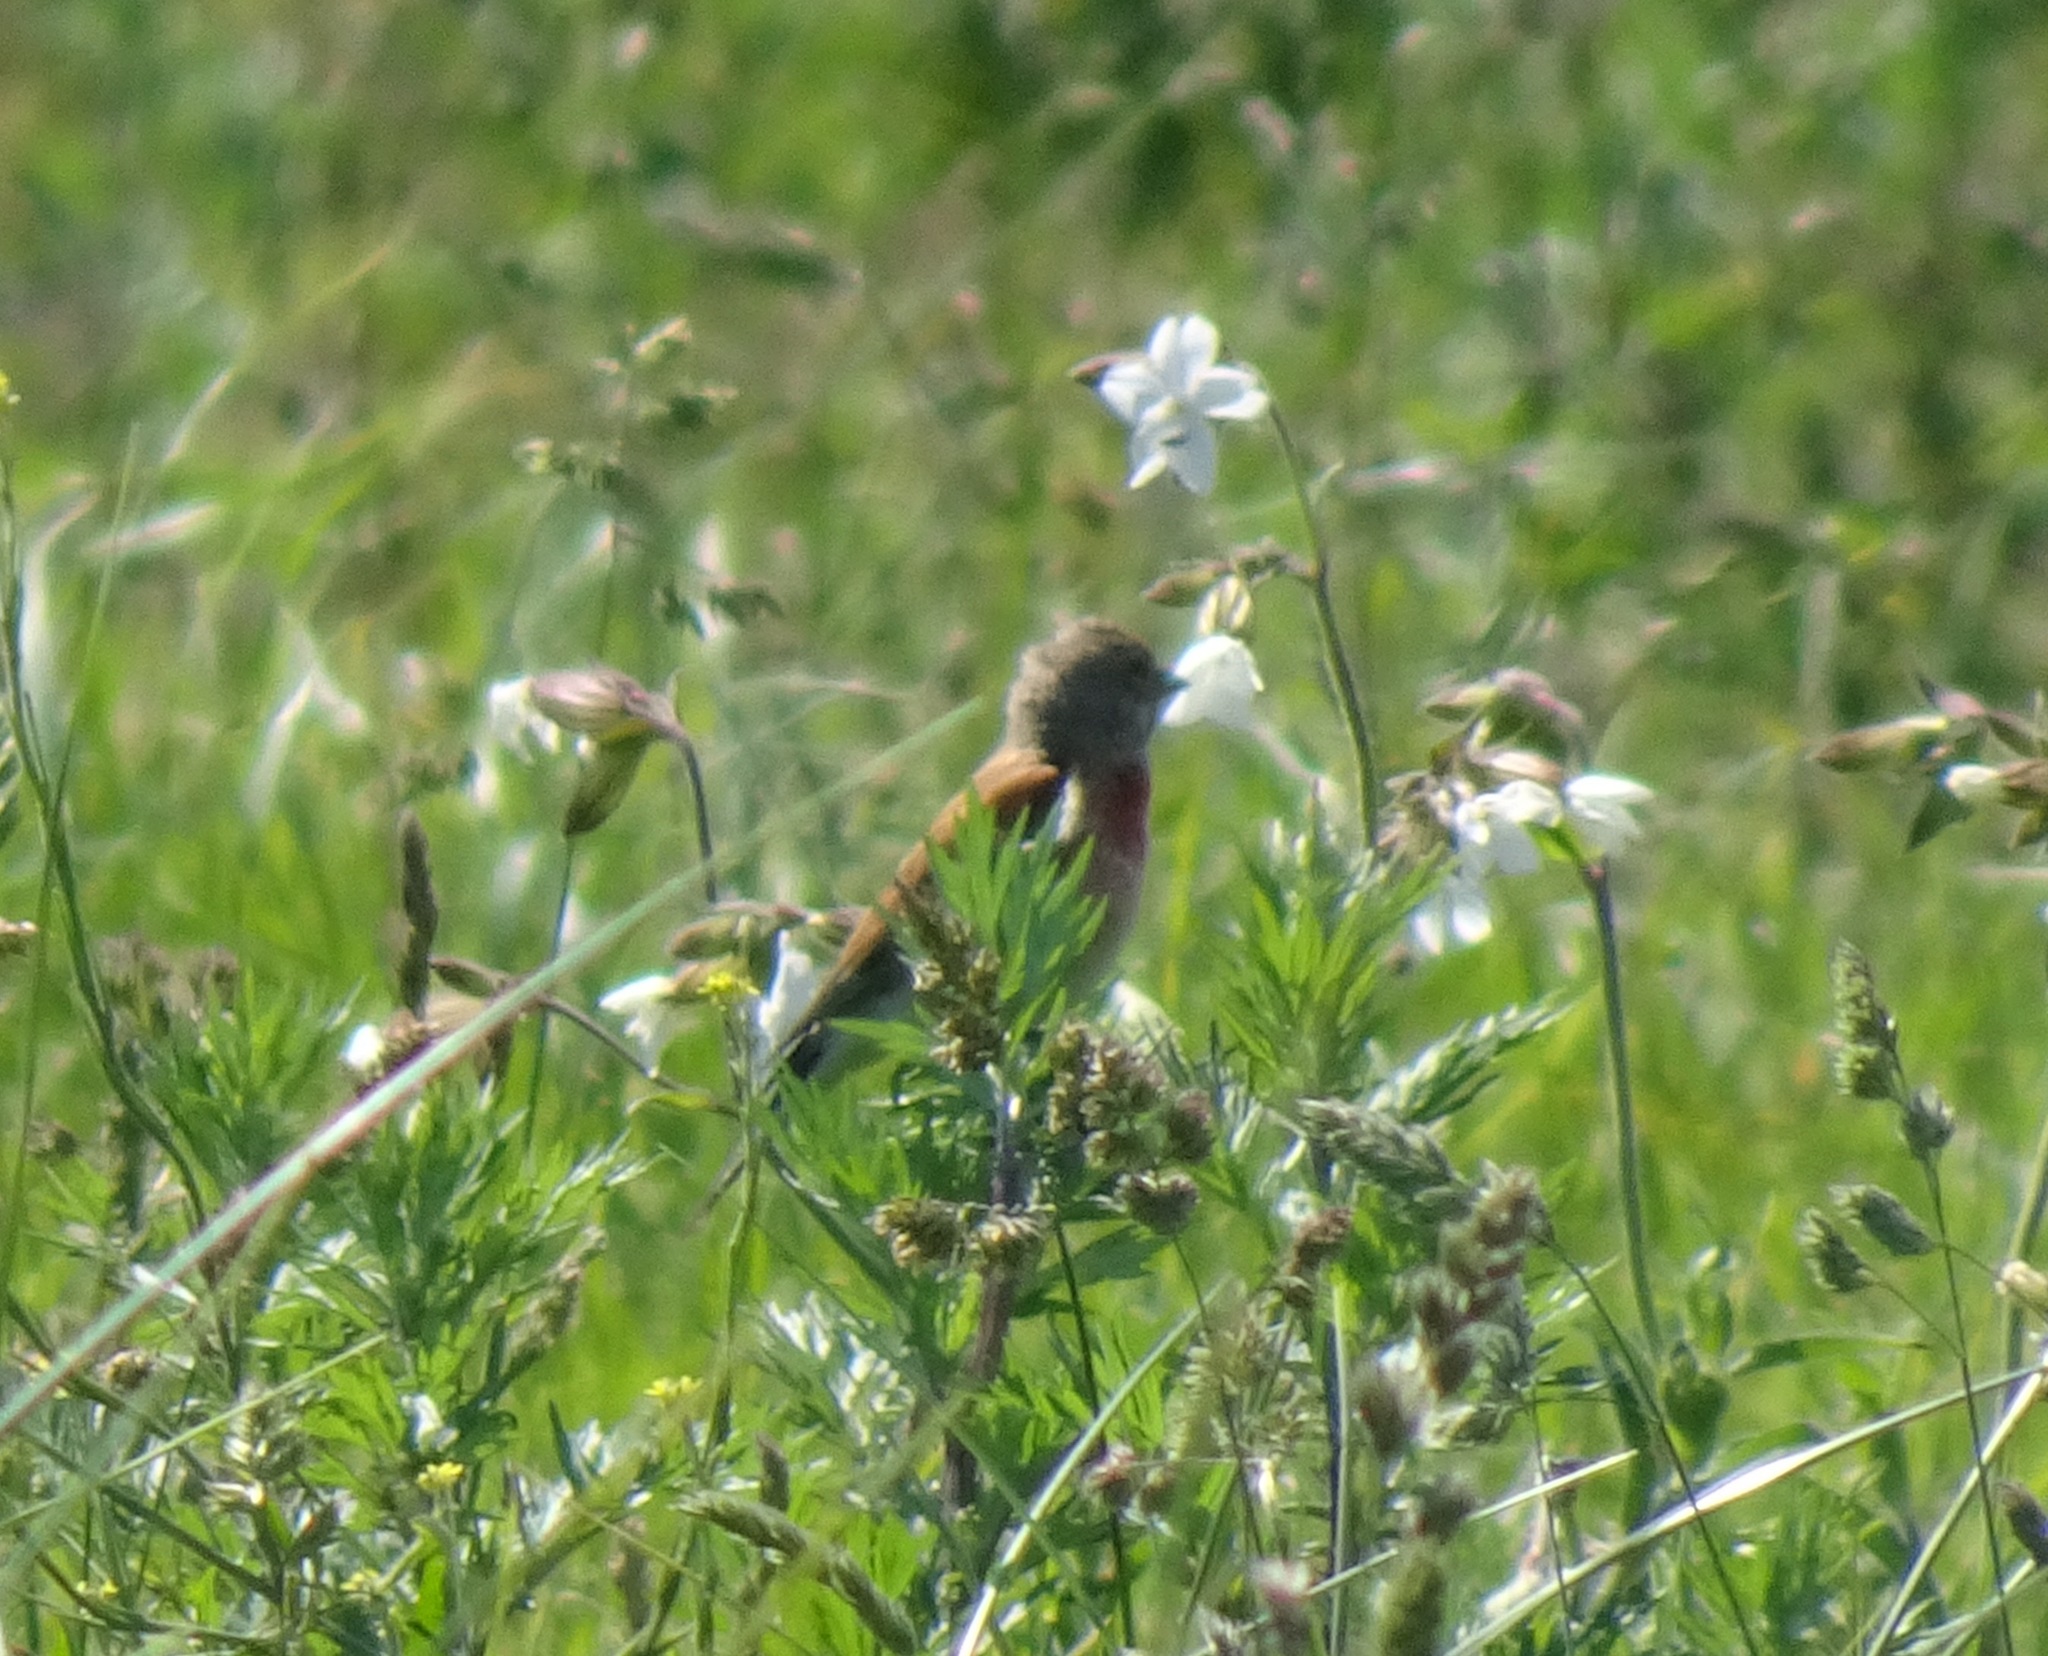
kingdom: Animalia
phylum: Chordata
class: Aves
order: Passeriformes
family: Fringillidae
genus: Linaria
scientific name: Linaria cannabina
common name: Common linnet
